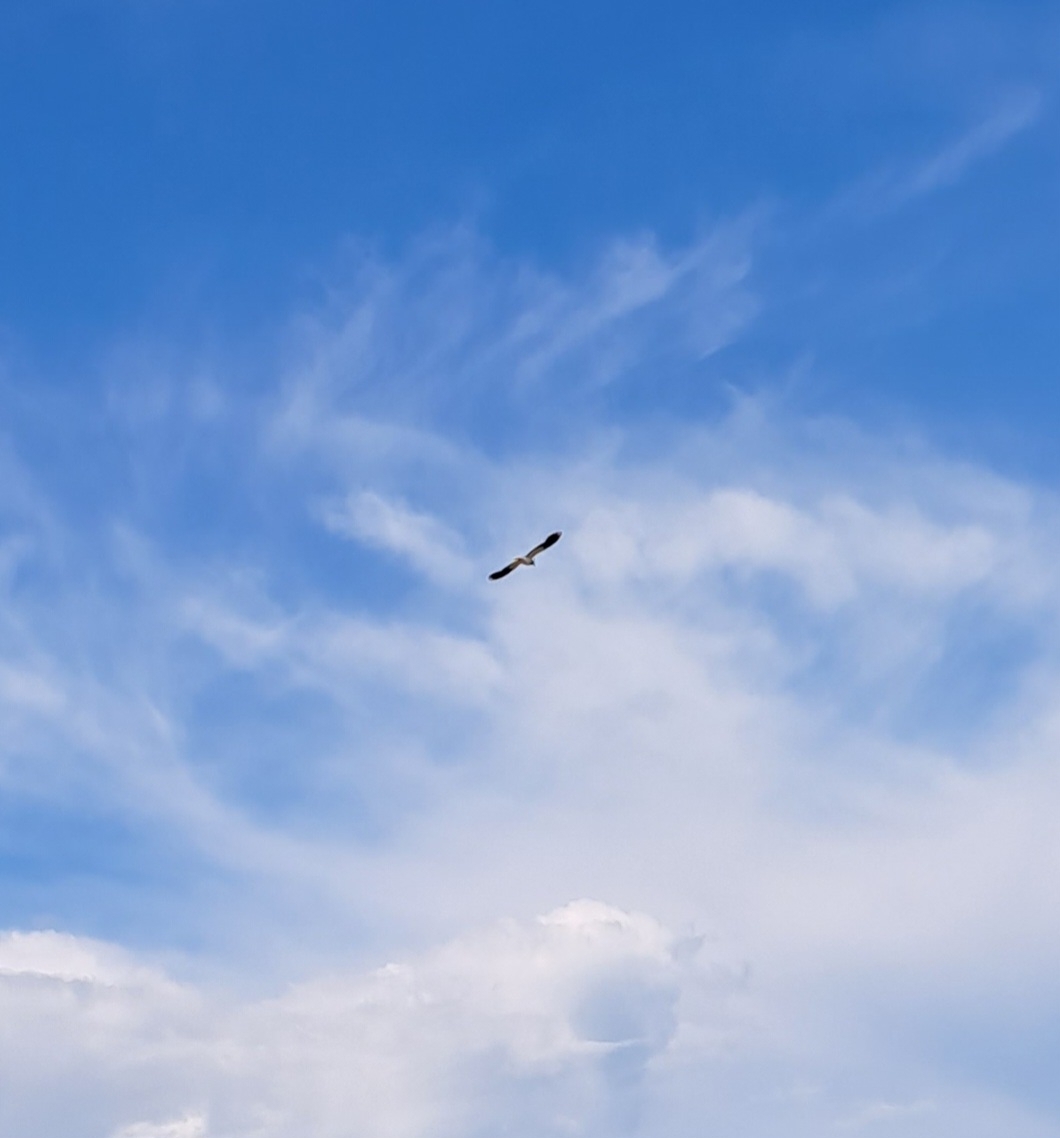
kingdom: Animalia
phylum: Chordata
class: Aves
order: Charadriiformes
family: Charadriidae
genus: Vanellus
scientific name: Vanellus vanellus
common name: Northern lapwing
